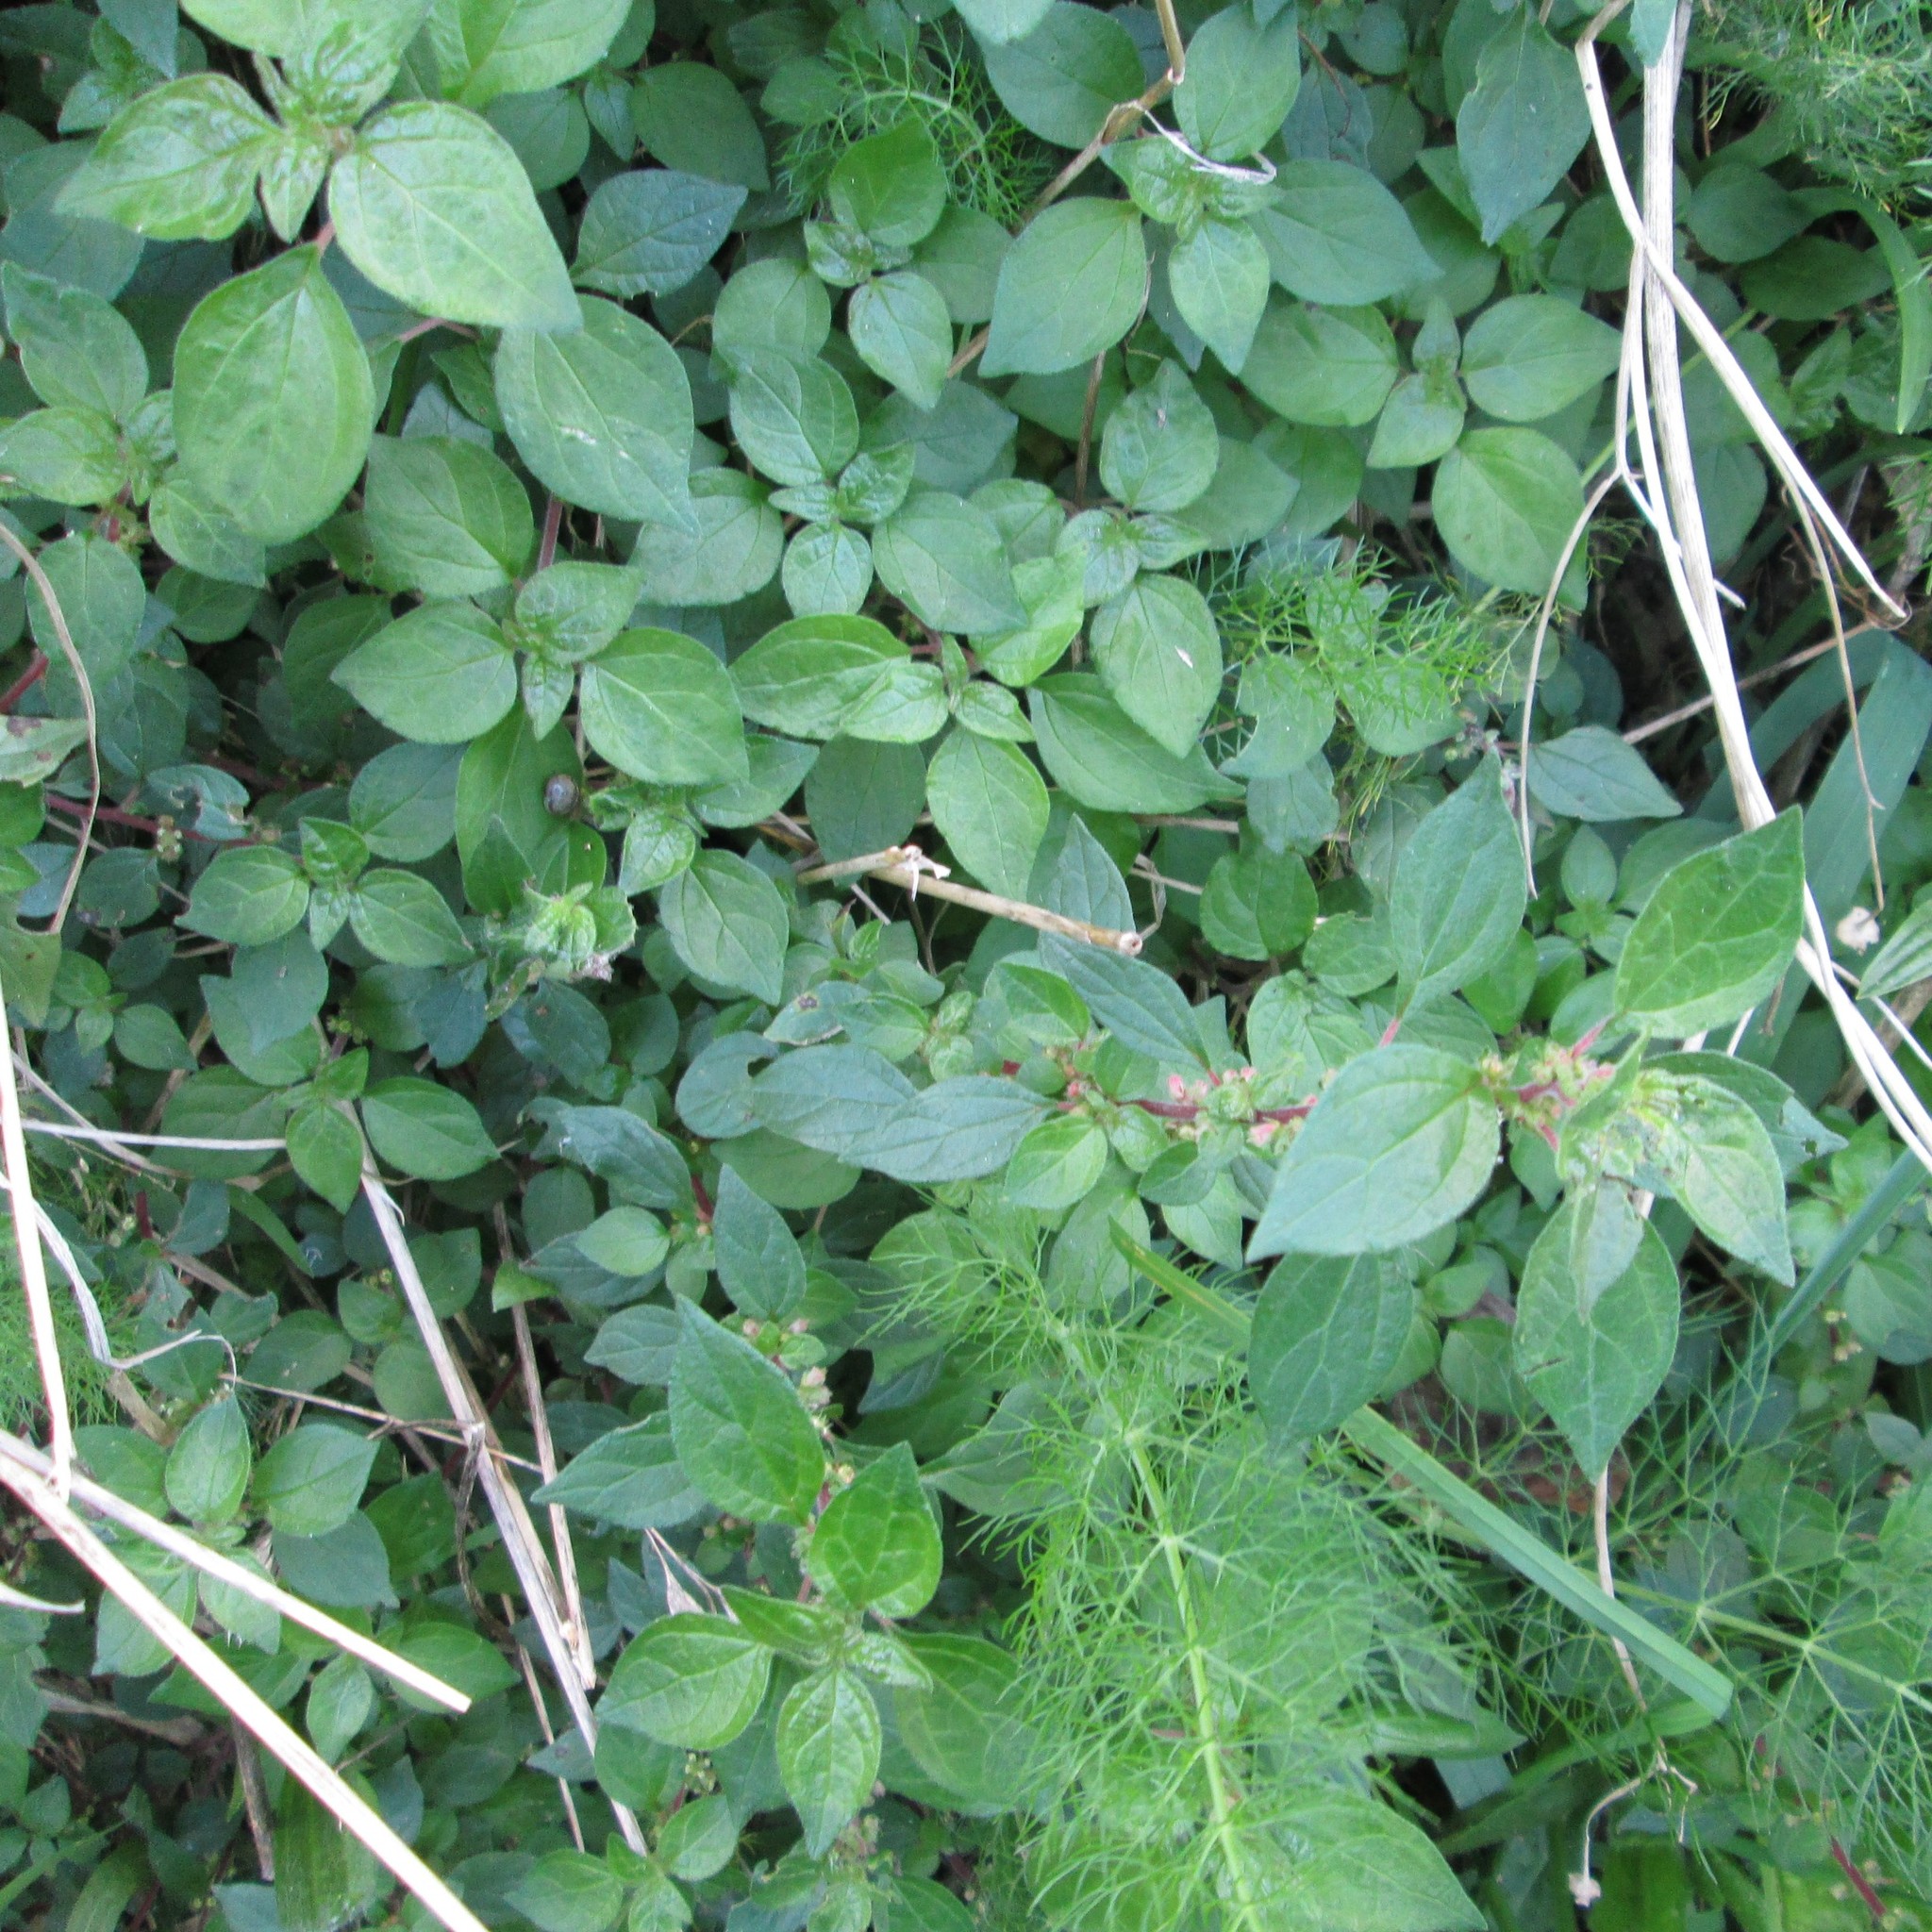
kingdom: Plantae
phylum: Tracheophyta
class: Magnoliopsida
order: Rosales
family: Urticaceae
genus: Parietaria
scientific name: Parietaria judaica
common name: Pellitory-of-the-wall
